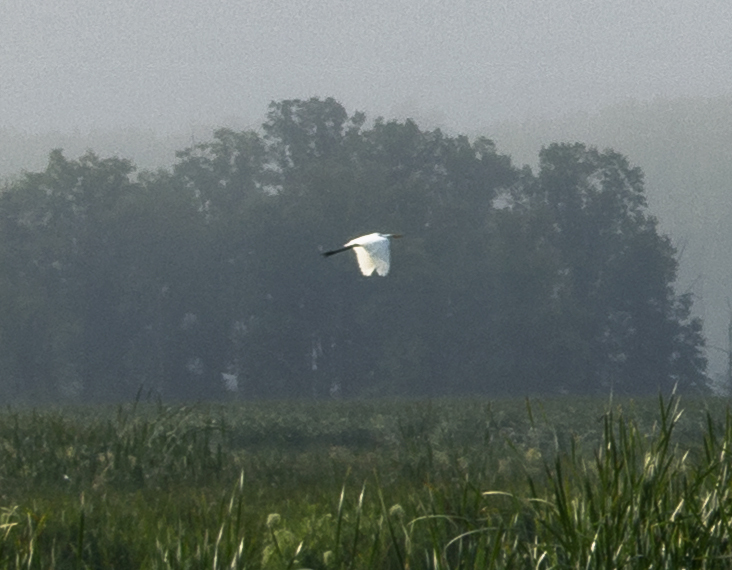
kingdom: Animalia
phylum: Chordata
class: Aves
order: Pelecaniformes
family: Ardeidae
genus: Ardea
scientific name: Ardea alba
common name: Great egret
